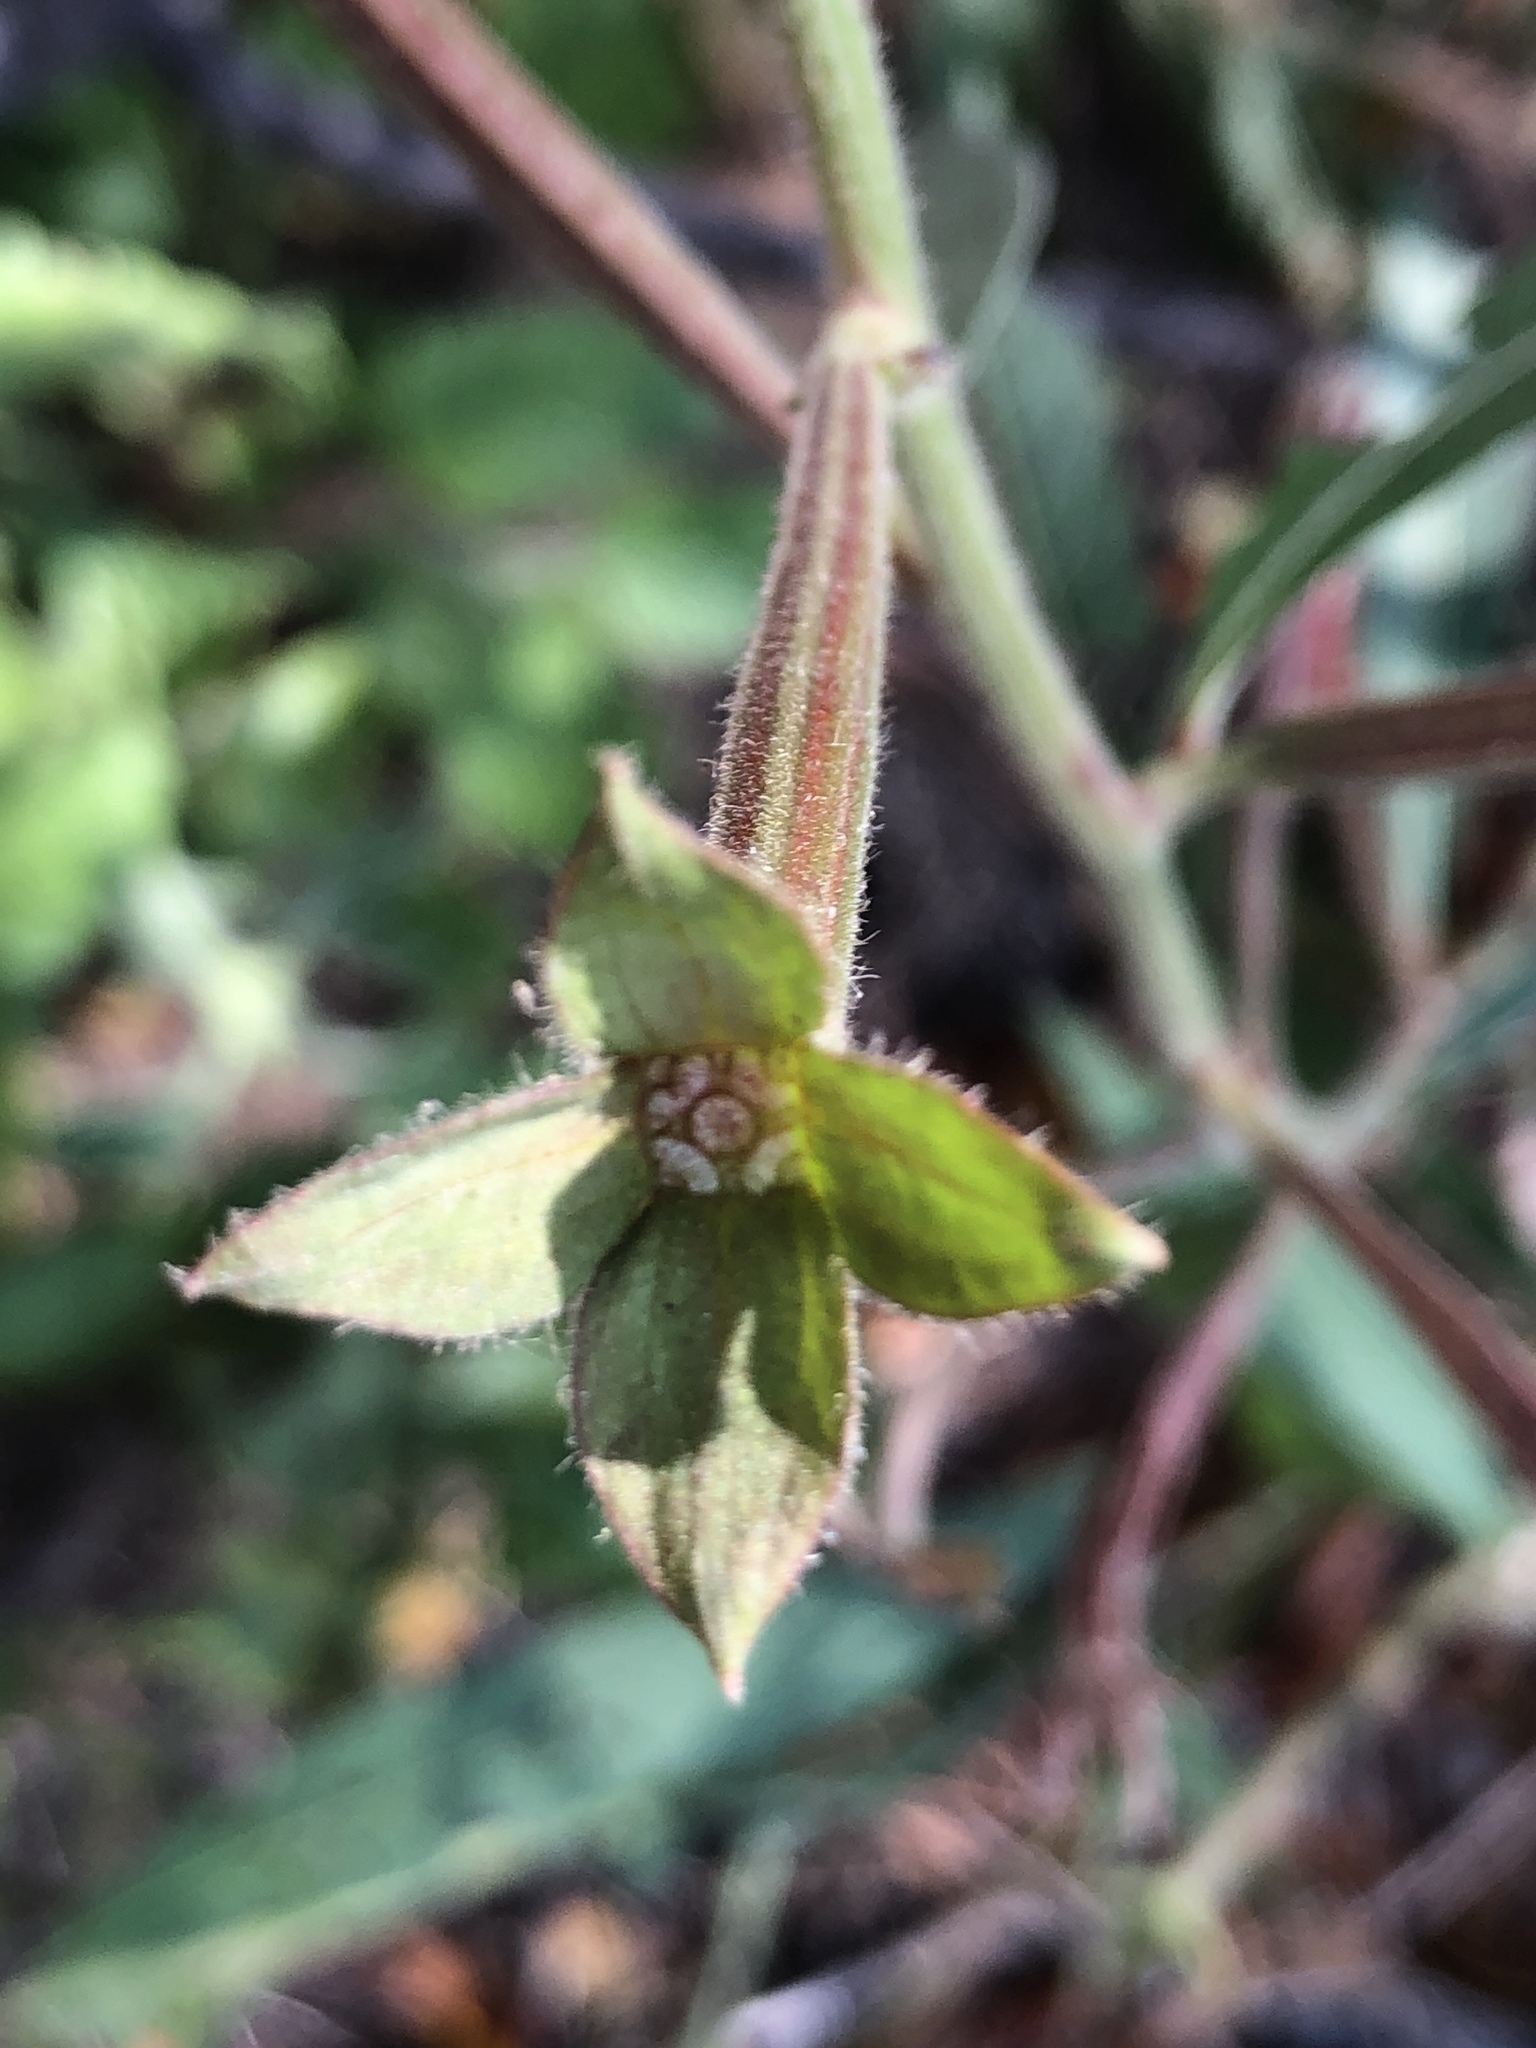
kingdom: Plantae
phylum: Tracheophyta
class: Magnoliopsida
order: Myrtales
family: Onagraceae
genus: Ludwigia
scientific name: Ludwigia octovalvis
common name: Water-primrose
